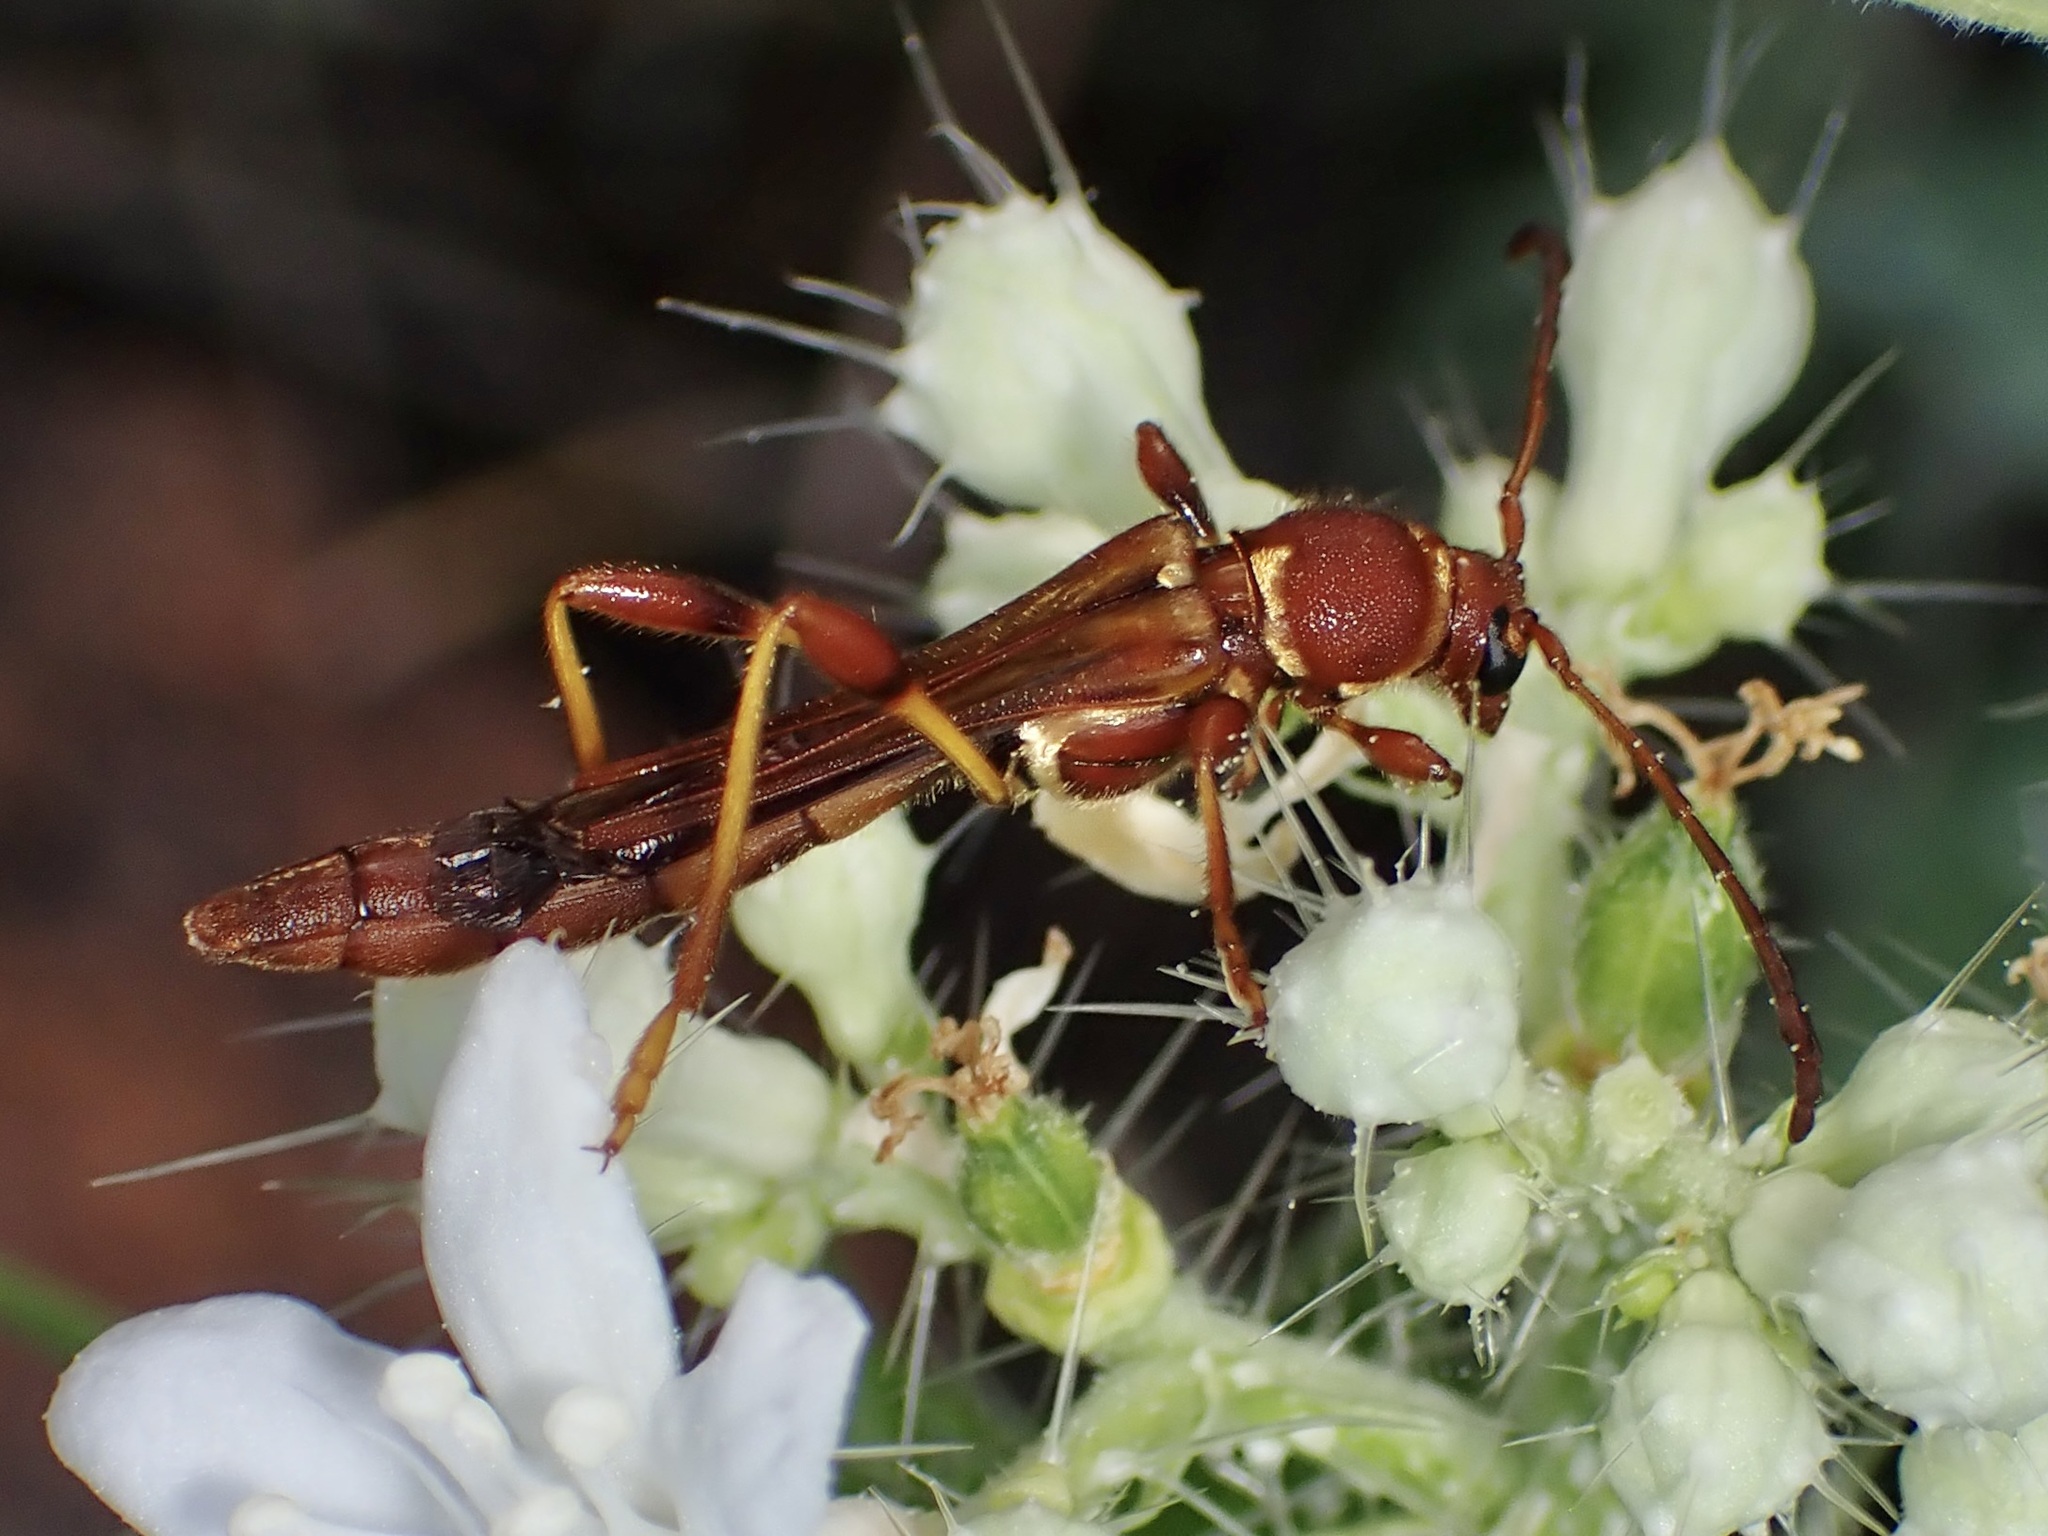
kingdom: Animalia
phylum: Arthropoda
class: Insecta
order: Coleoptera
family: Cerambycidae
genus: Odontocera
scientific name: Odontocera aurocincta
